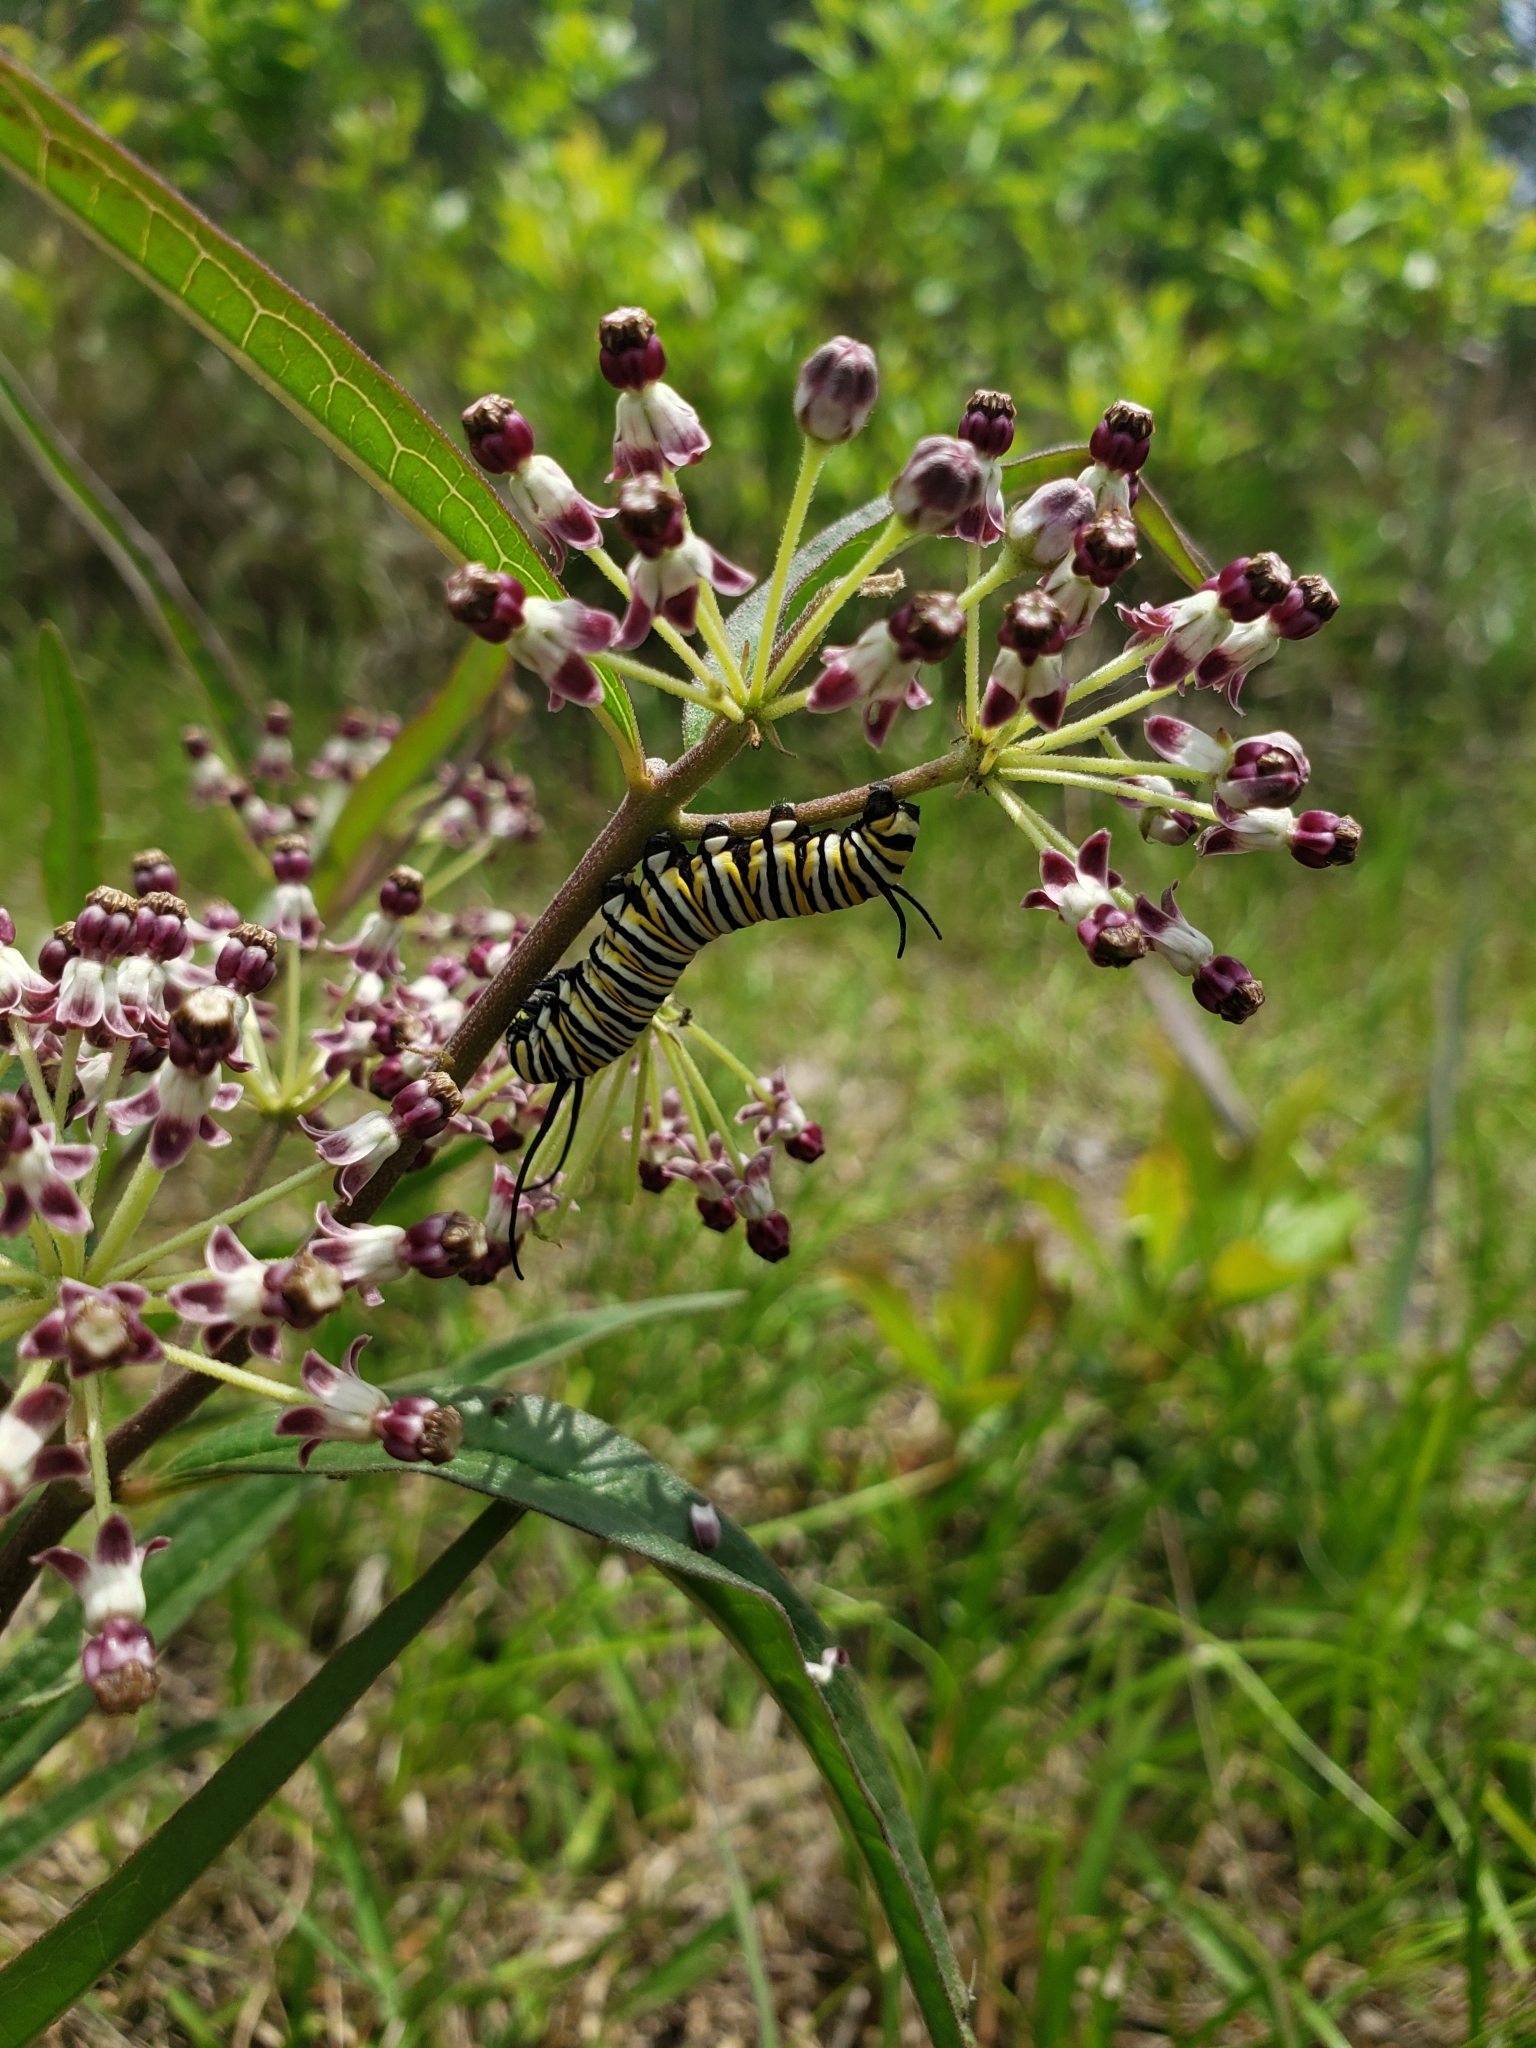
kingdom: Animalia
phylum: Arthropoda
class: Insecta
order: Lepidoptera
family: Nymphalidae
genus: Danaus
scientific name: Danaus plexippus
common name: Monarch
